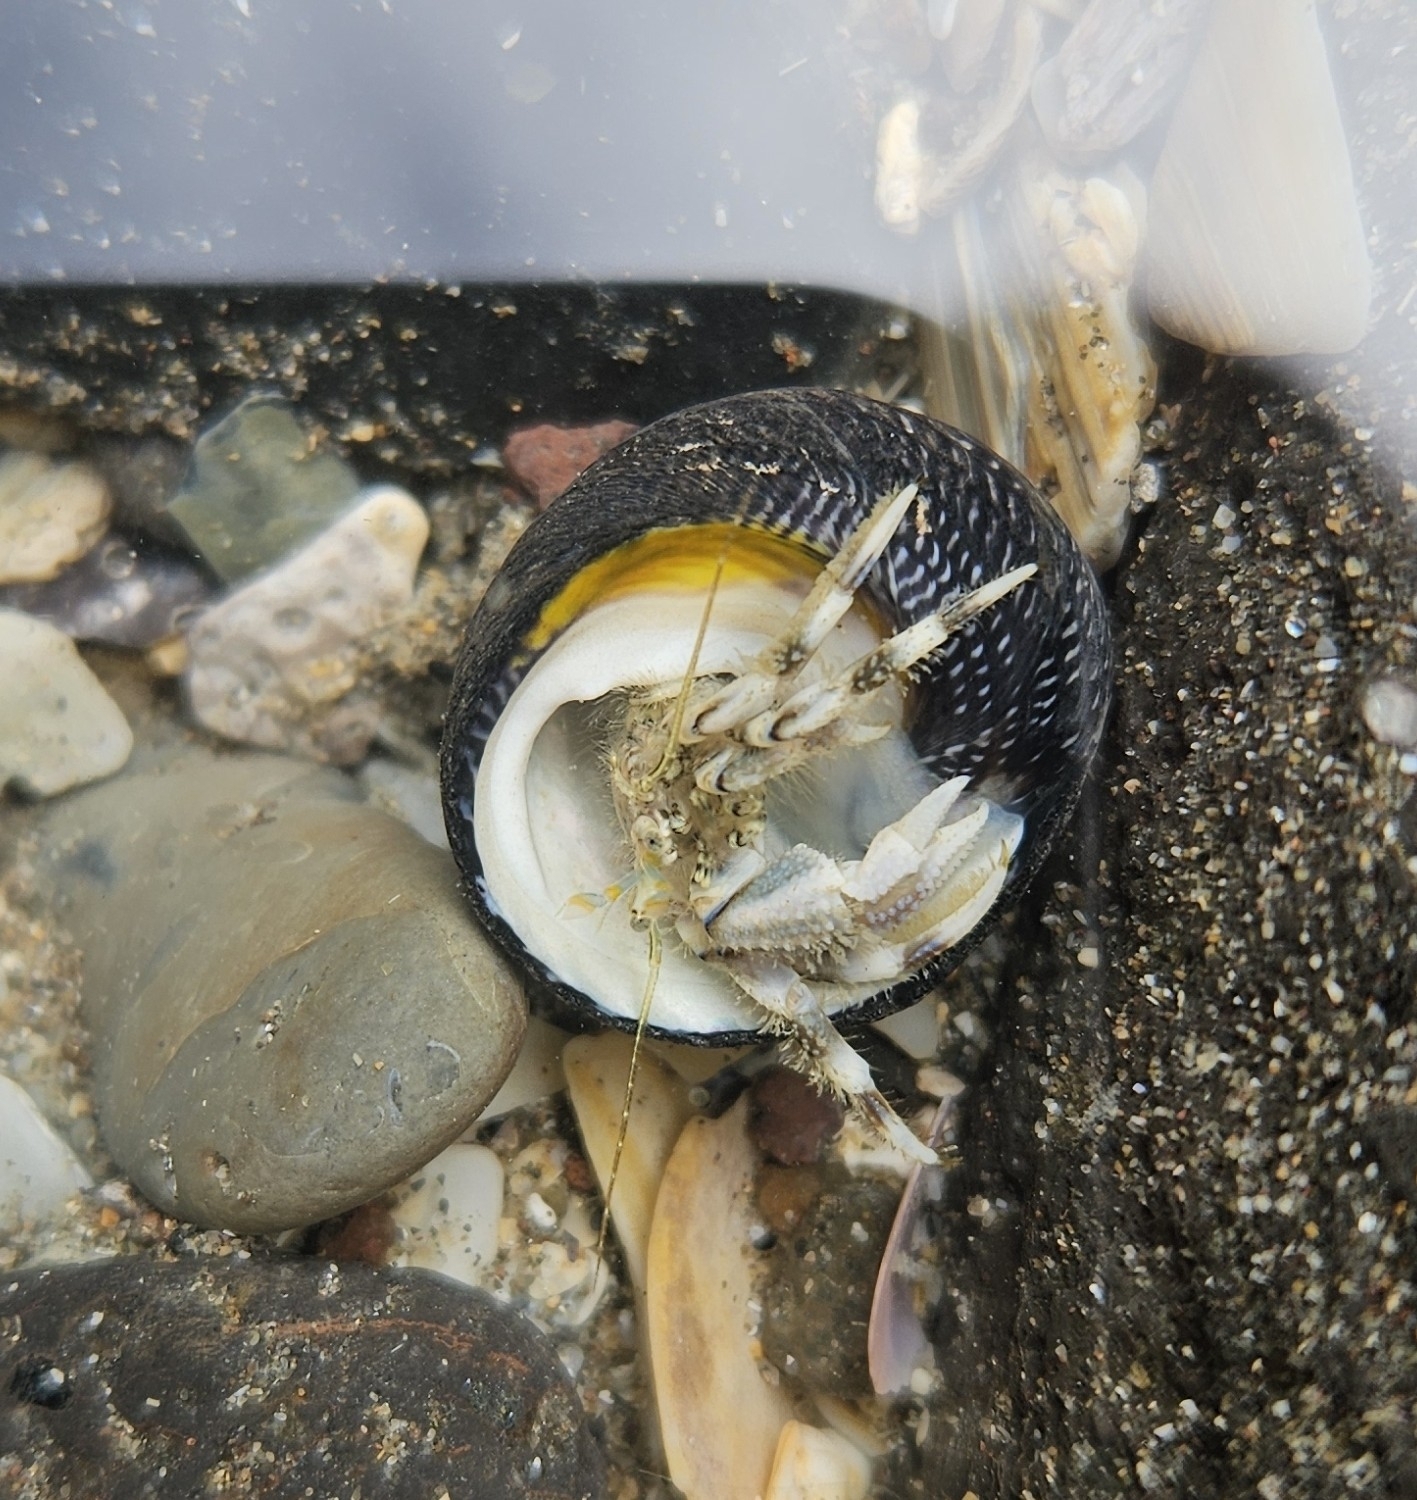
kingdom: Animalia
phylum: Arthropoda
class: Malacostraca
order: Decapoda
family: Paguridae
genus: Pagurus
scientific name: Pagurus novizealandiae
